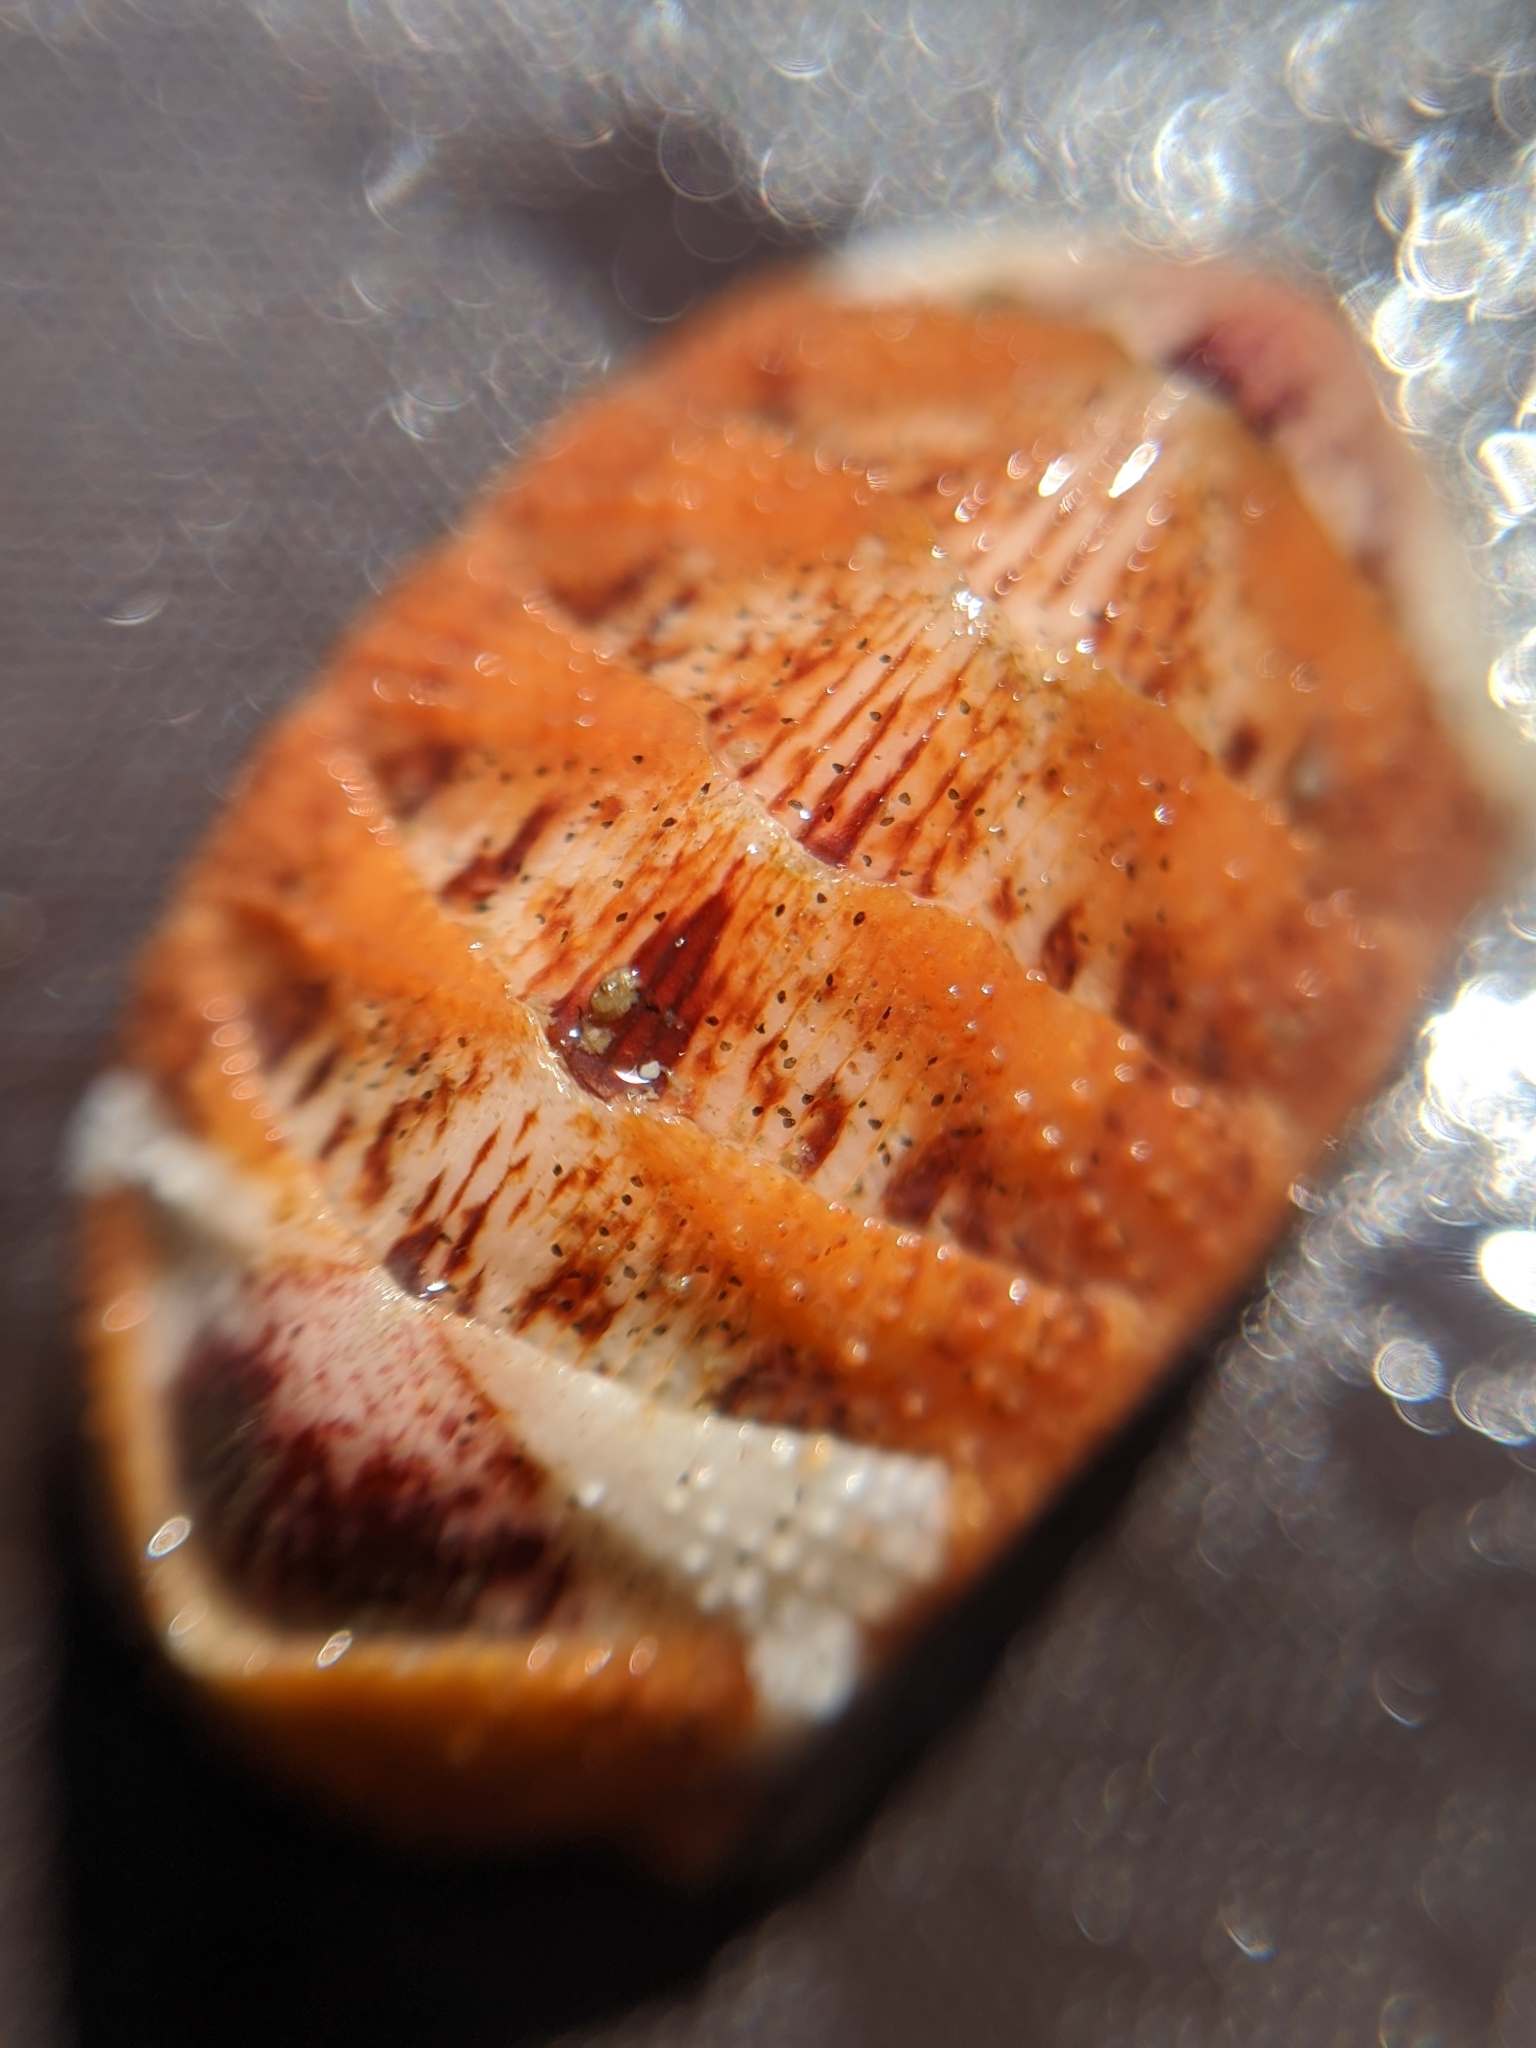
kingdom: Animalia
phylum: Mollusca
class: Polyplacophora
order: Chitonida
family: Ischnochitonidae
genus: Lepidozona
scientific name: Lepidozona mertensii
